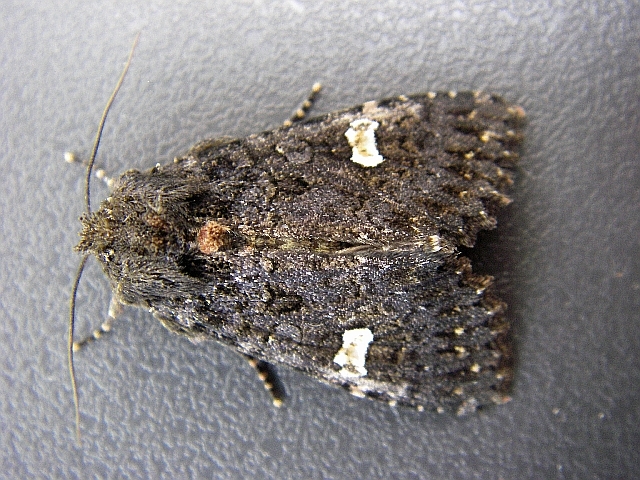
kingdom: Animalia
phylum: Arthropoda
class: Insecta
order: Lepidoptera
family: Noctuidae
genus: Melanchra
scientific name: Melanchra persicariae
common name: Dot moth
